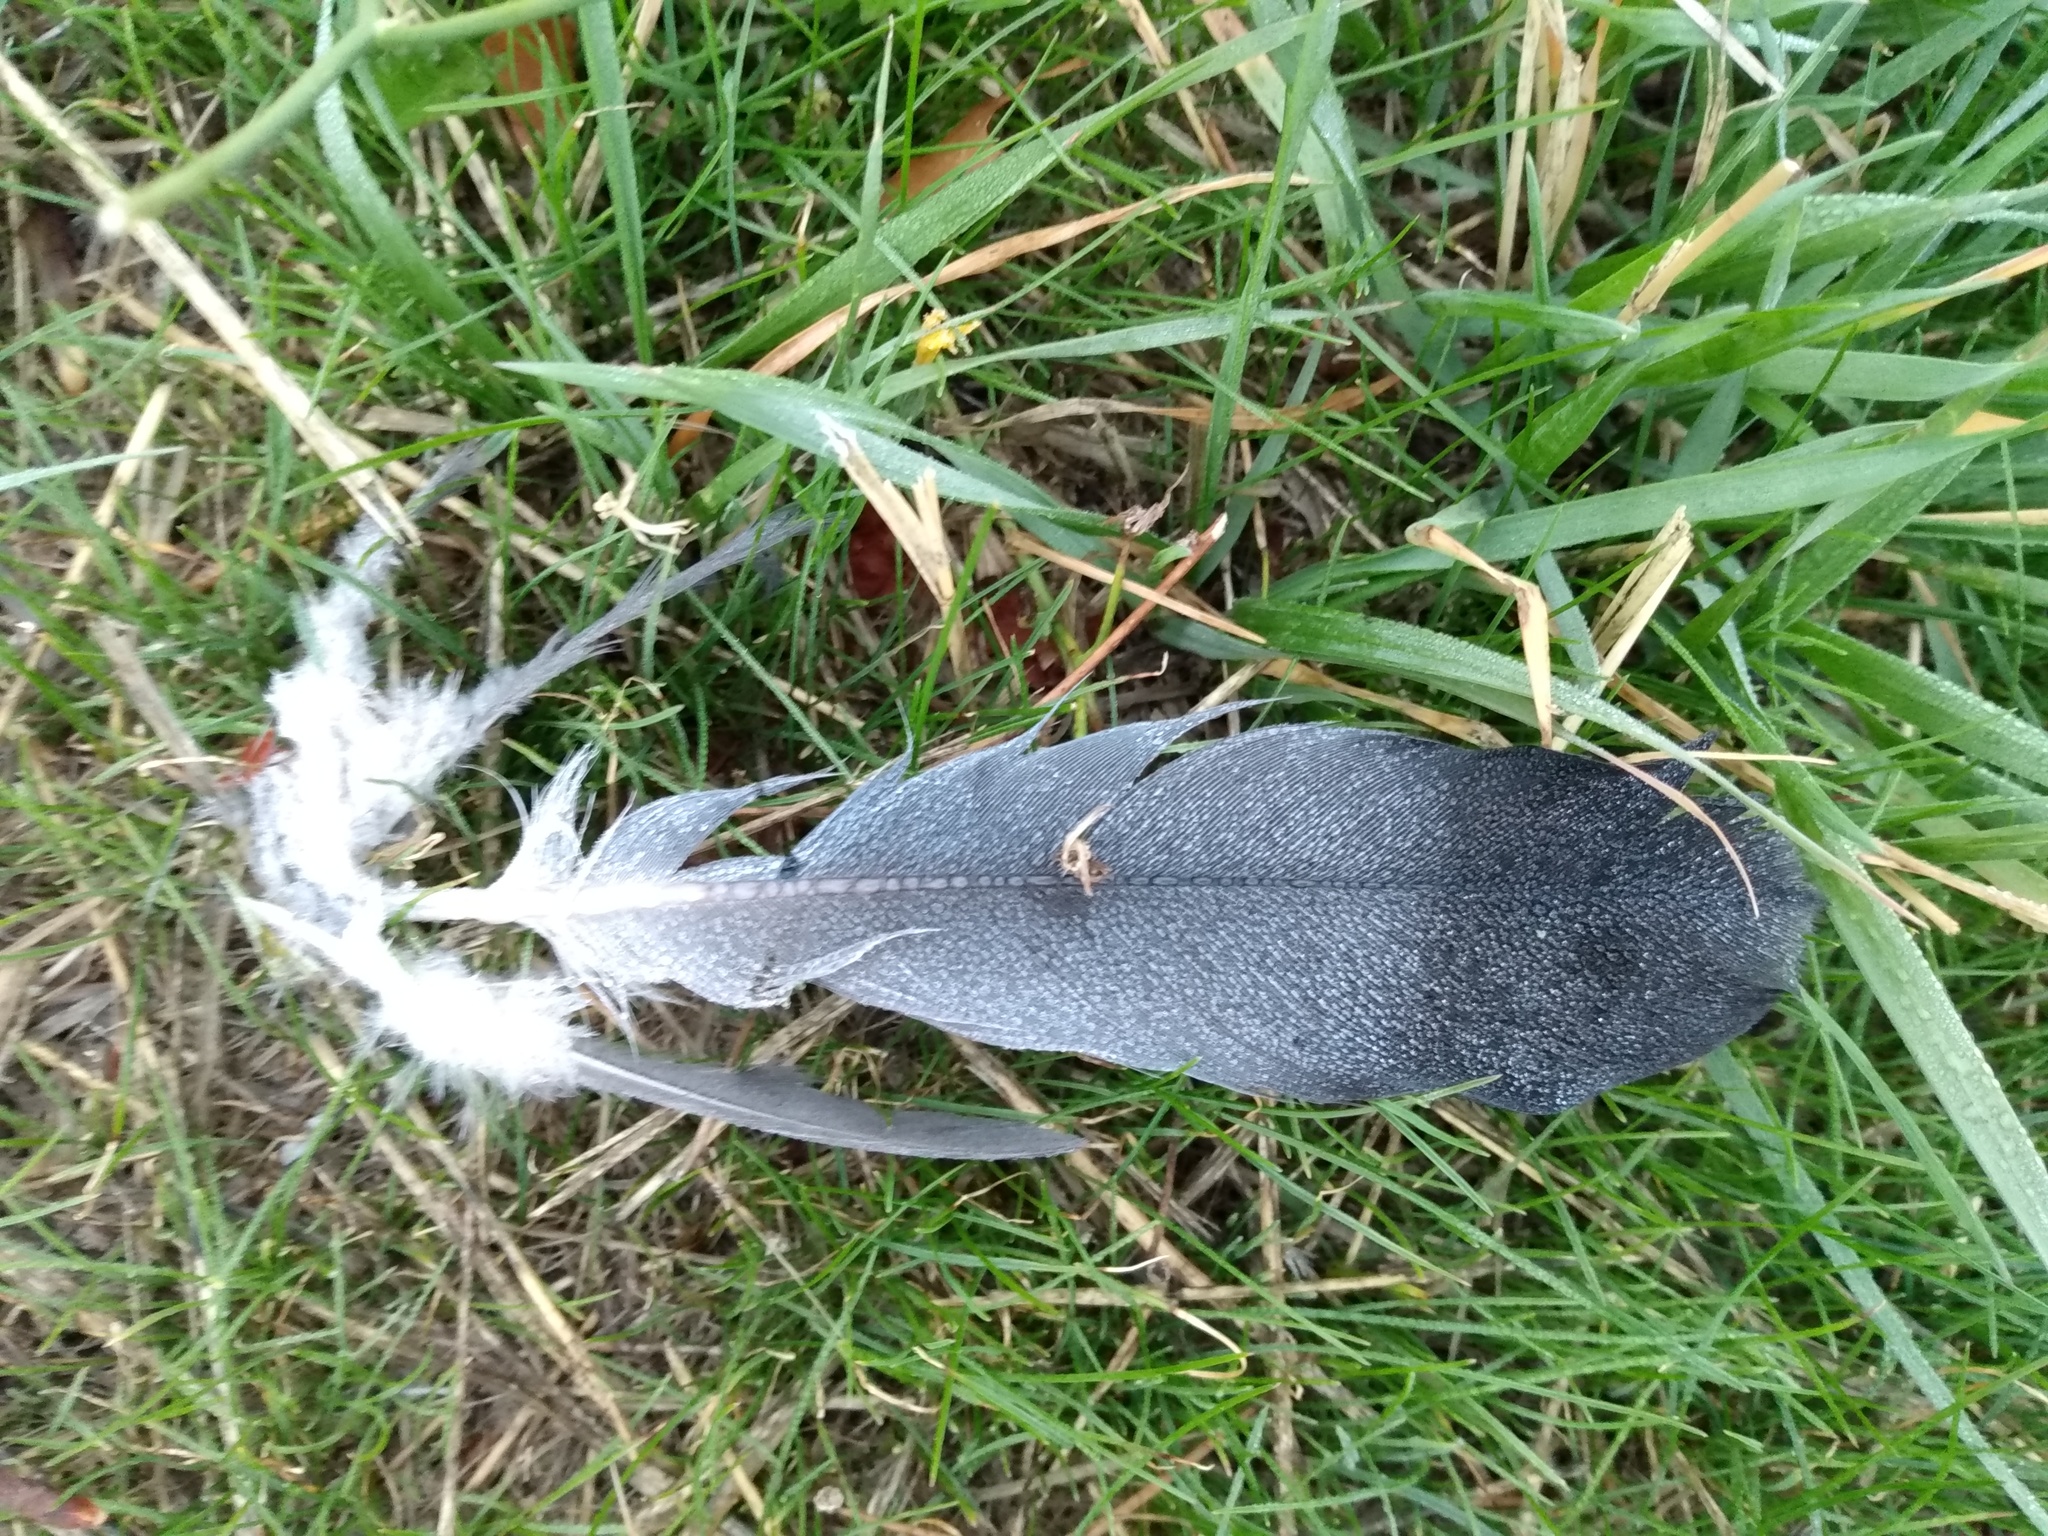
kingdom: Animalia
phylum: Chordata
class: Aves
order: Columbiformes
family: Columbidae
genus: Columba
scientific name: Columba livia
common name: Rock pigeon
